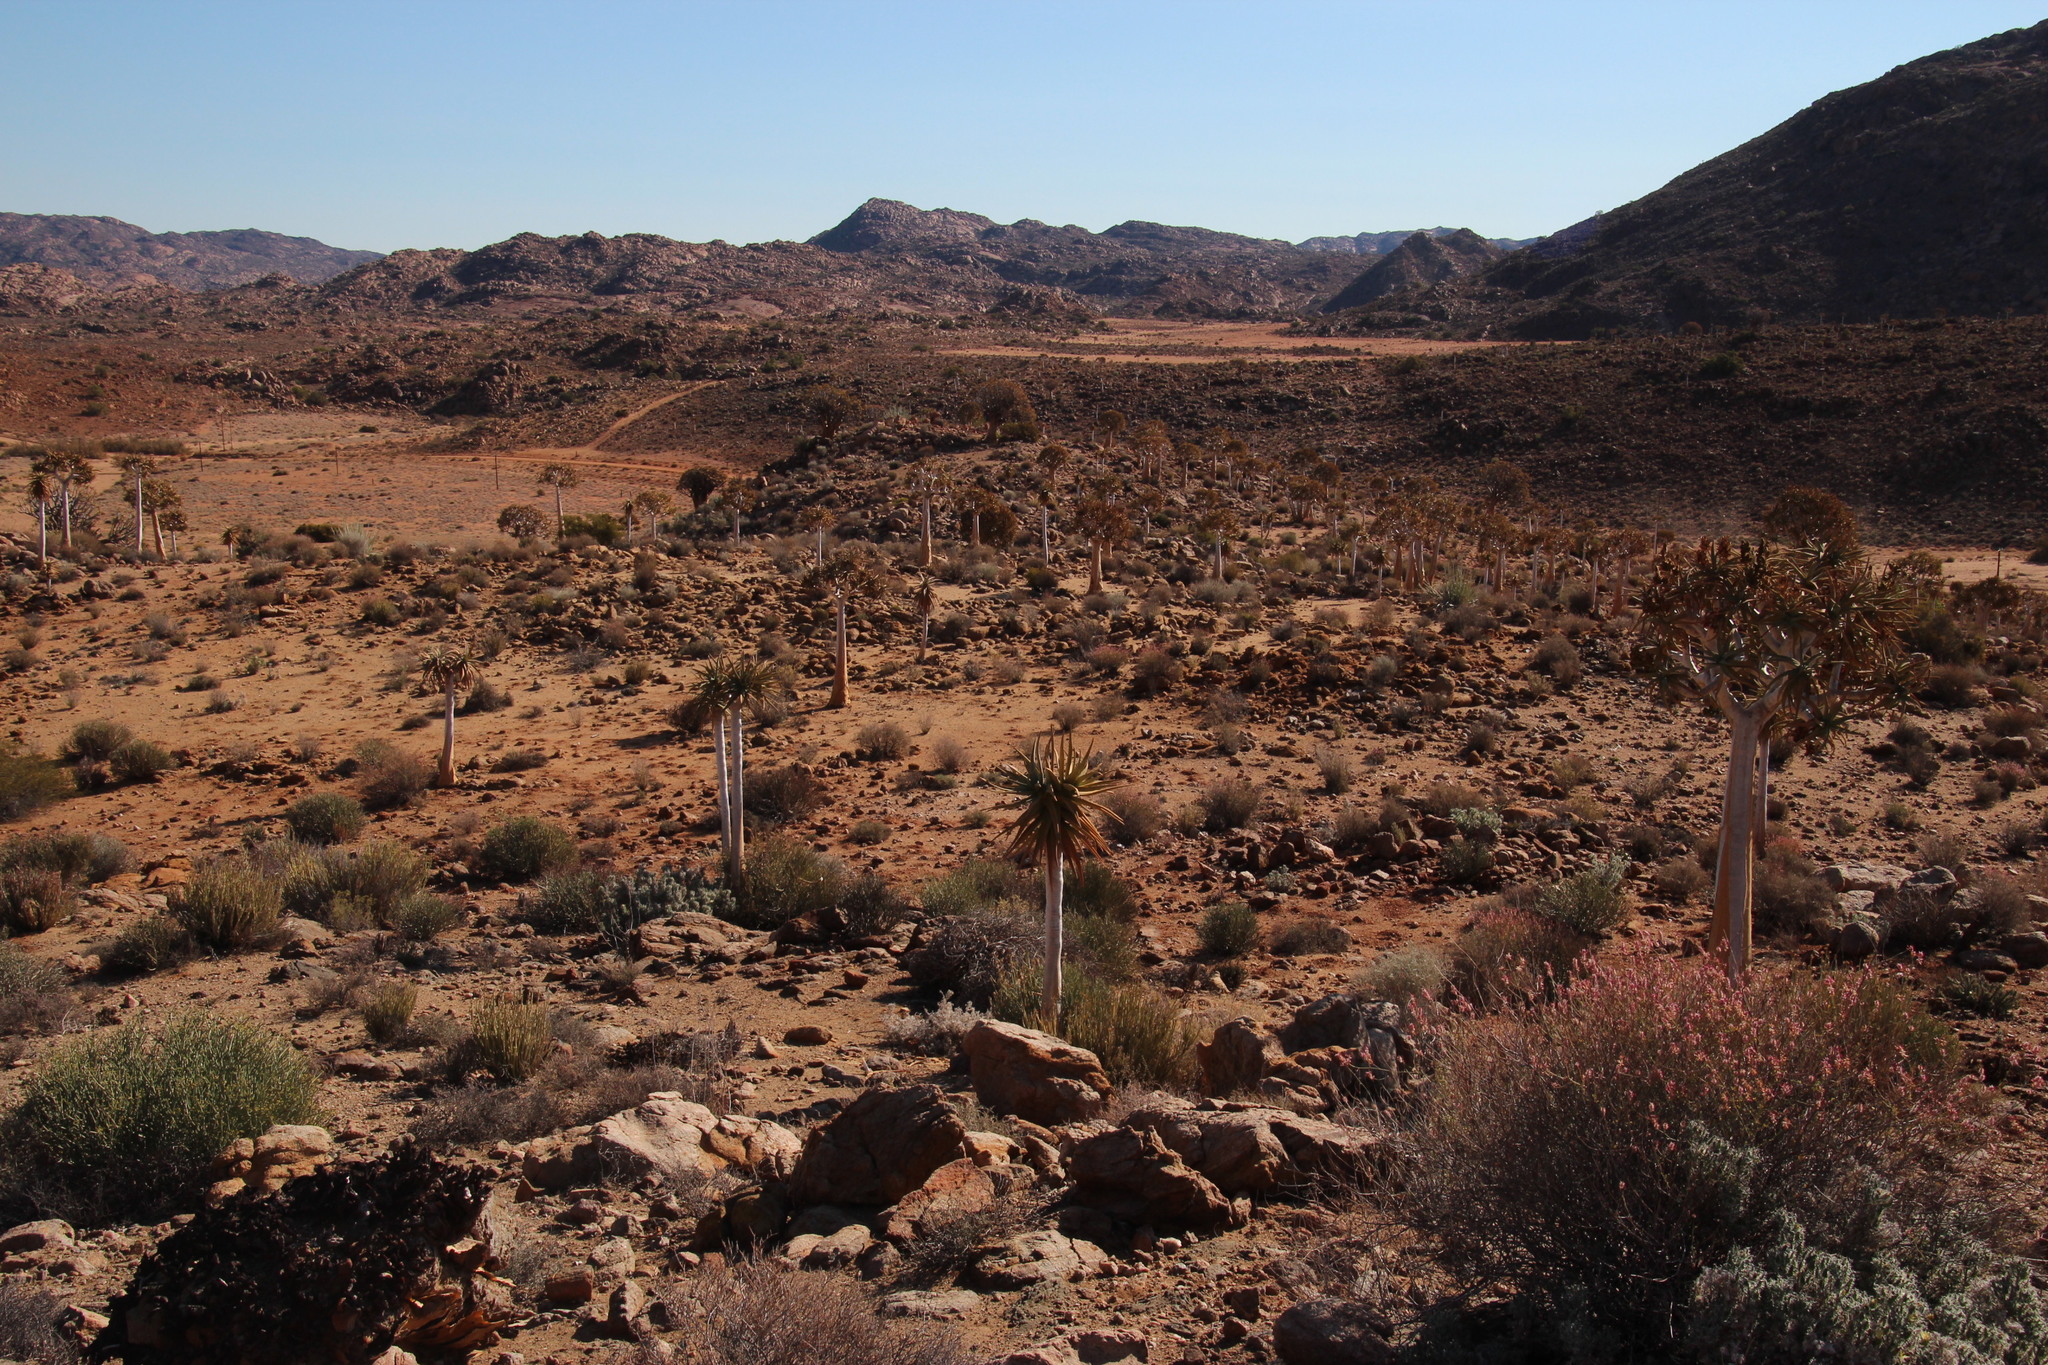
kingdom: Plantae
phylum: Tracheophyta
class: Magnoliopsida
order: Caryophyllales
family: Plumbaginaceae
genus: Dyerophytum
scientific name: Dyerophytum africanum
